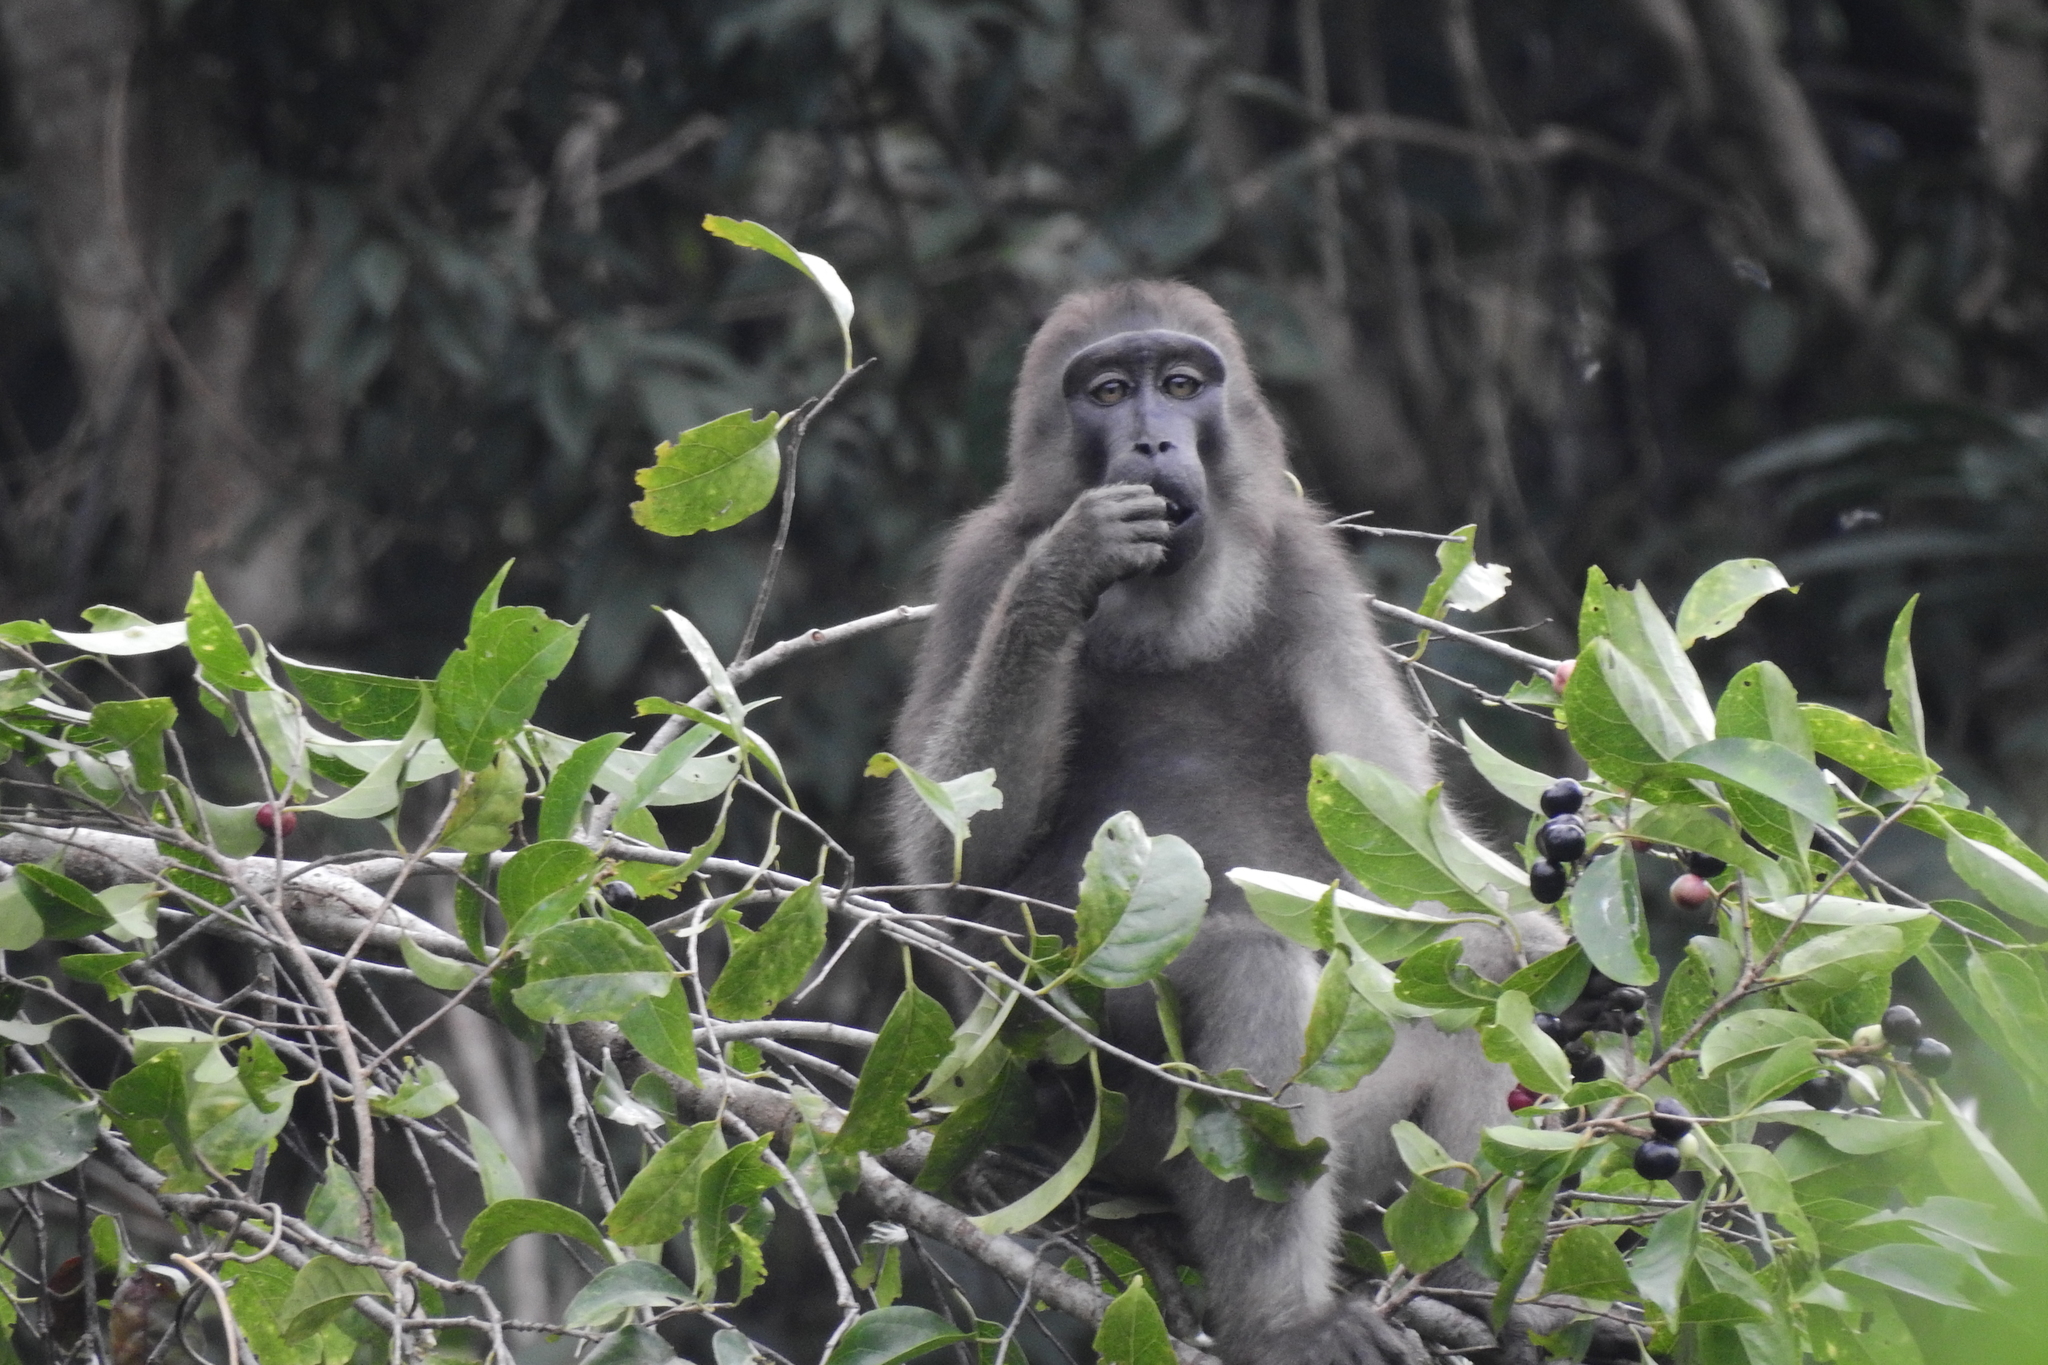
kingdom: Animalia
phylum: Chordata
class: Mammalia
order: Primates
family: Cercopithecidae
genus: Macaca
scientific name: Macaca ochreata
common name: Booted macaque
